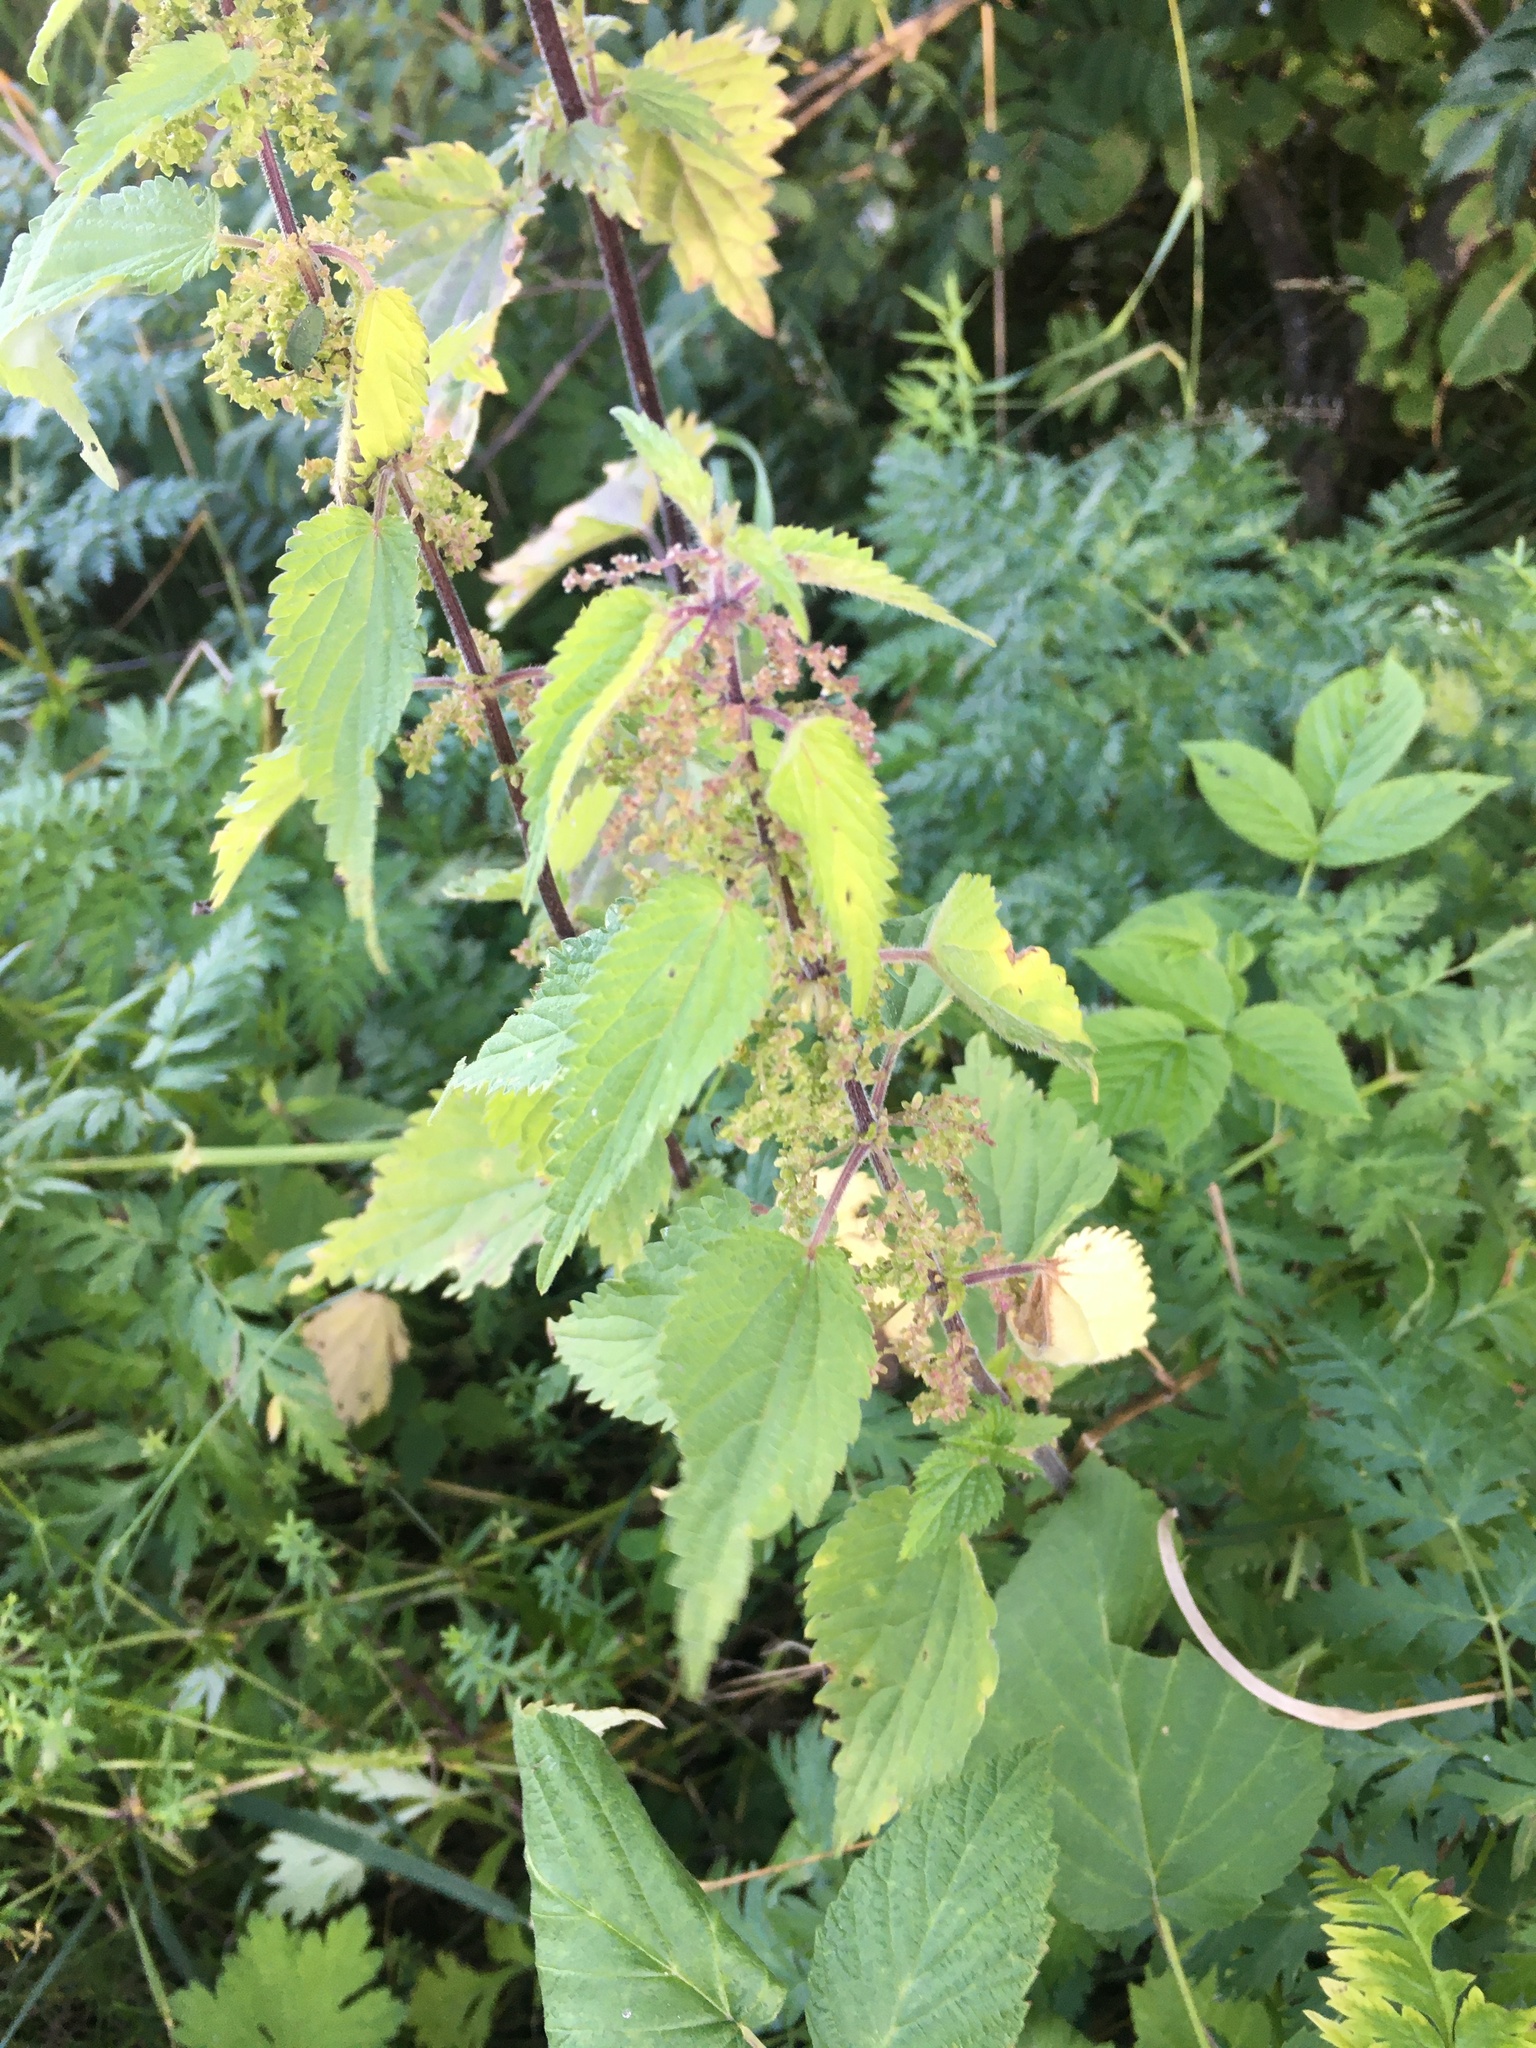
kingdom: Plantae
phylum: Tracheophyta
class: Magnoliopsida
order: Rosales
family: Urticaceae
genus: Urtica
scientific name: Urtica dioica
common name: Common nettle
